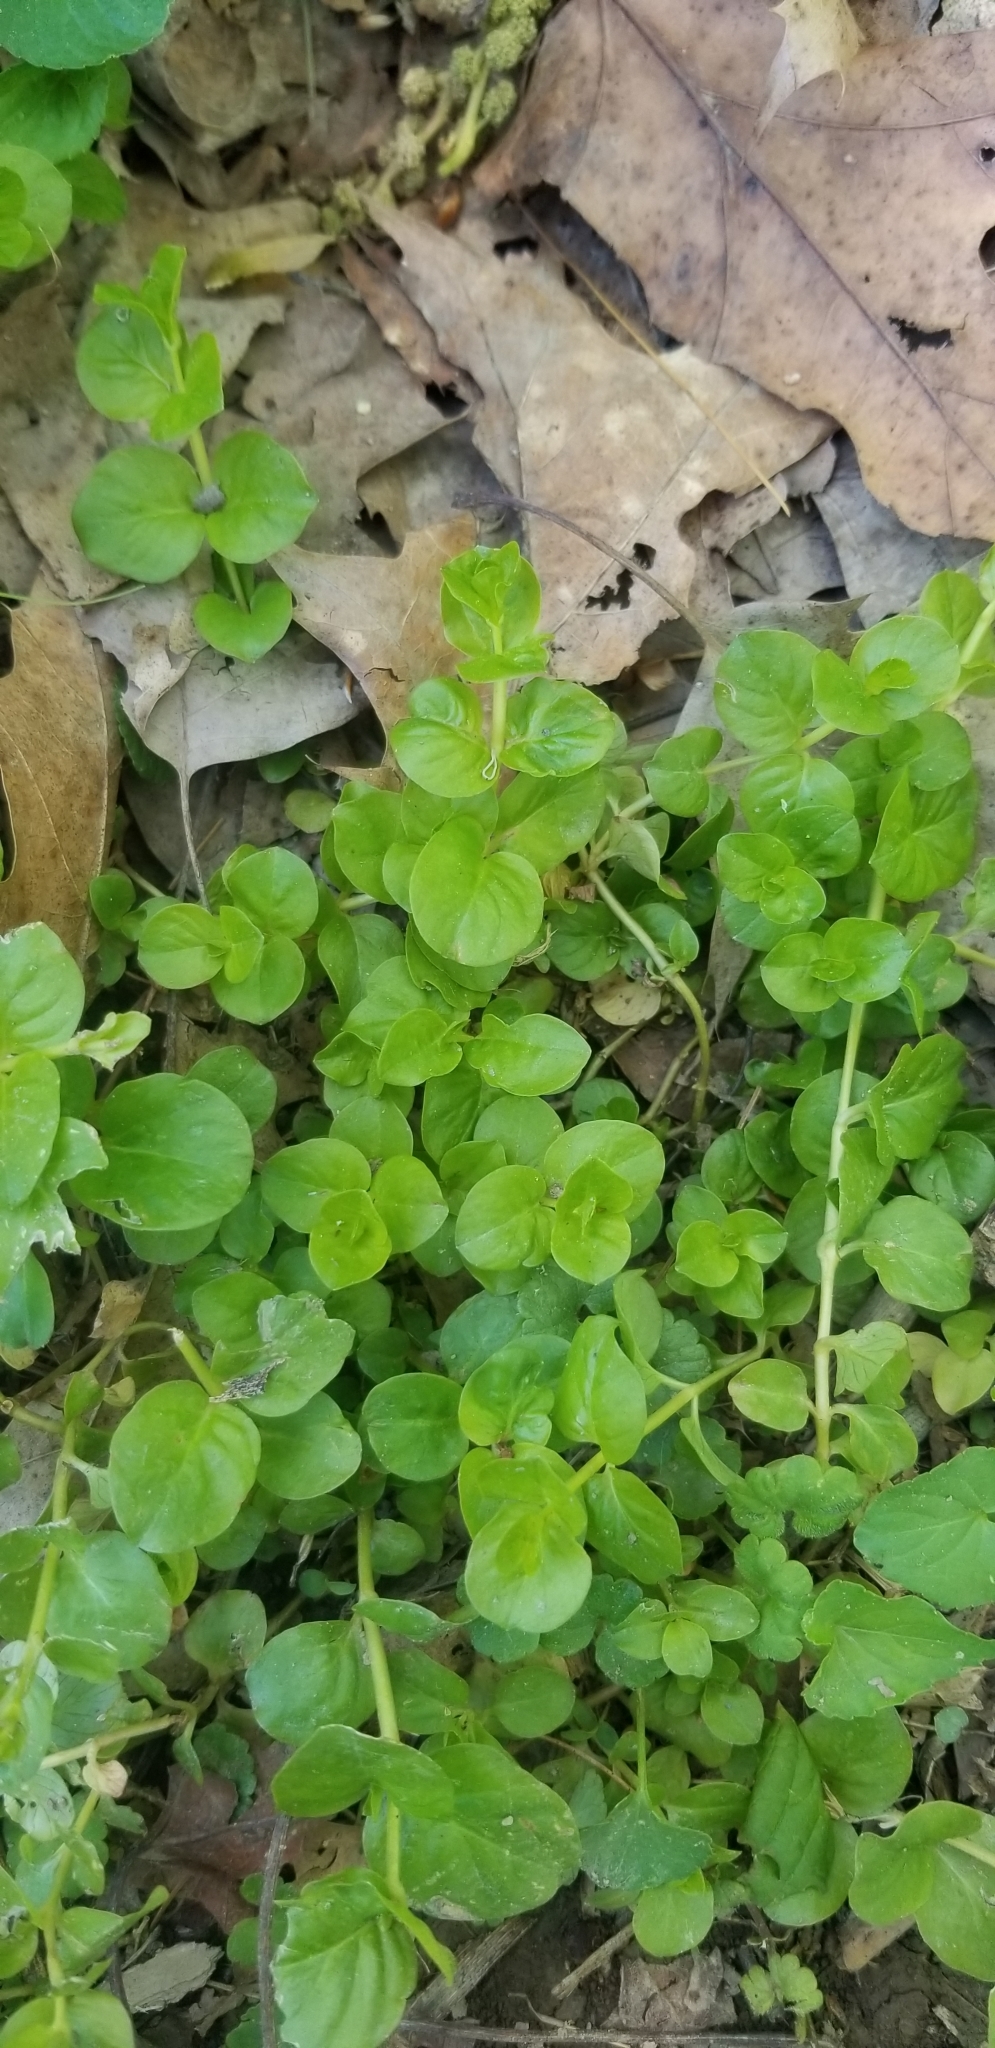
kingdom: Plantae
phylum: Tracheophyta
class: Magnoliopsida
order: Ericales
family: Primulaceae
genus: Lysimachia
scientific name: Lysimachia nummularia
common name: Moneywort
